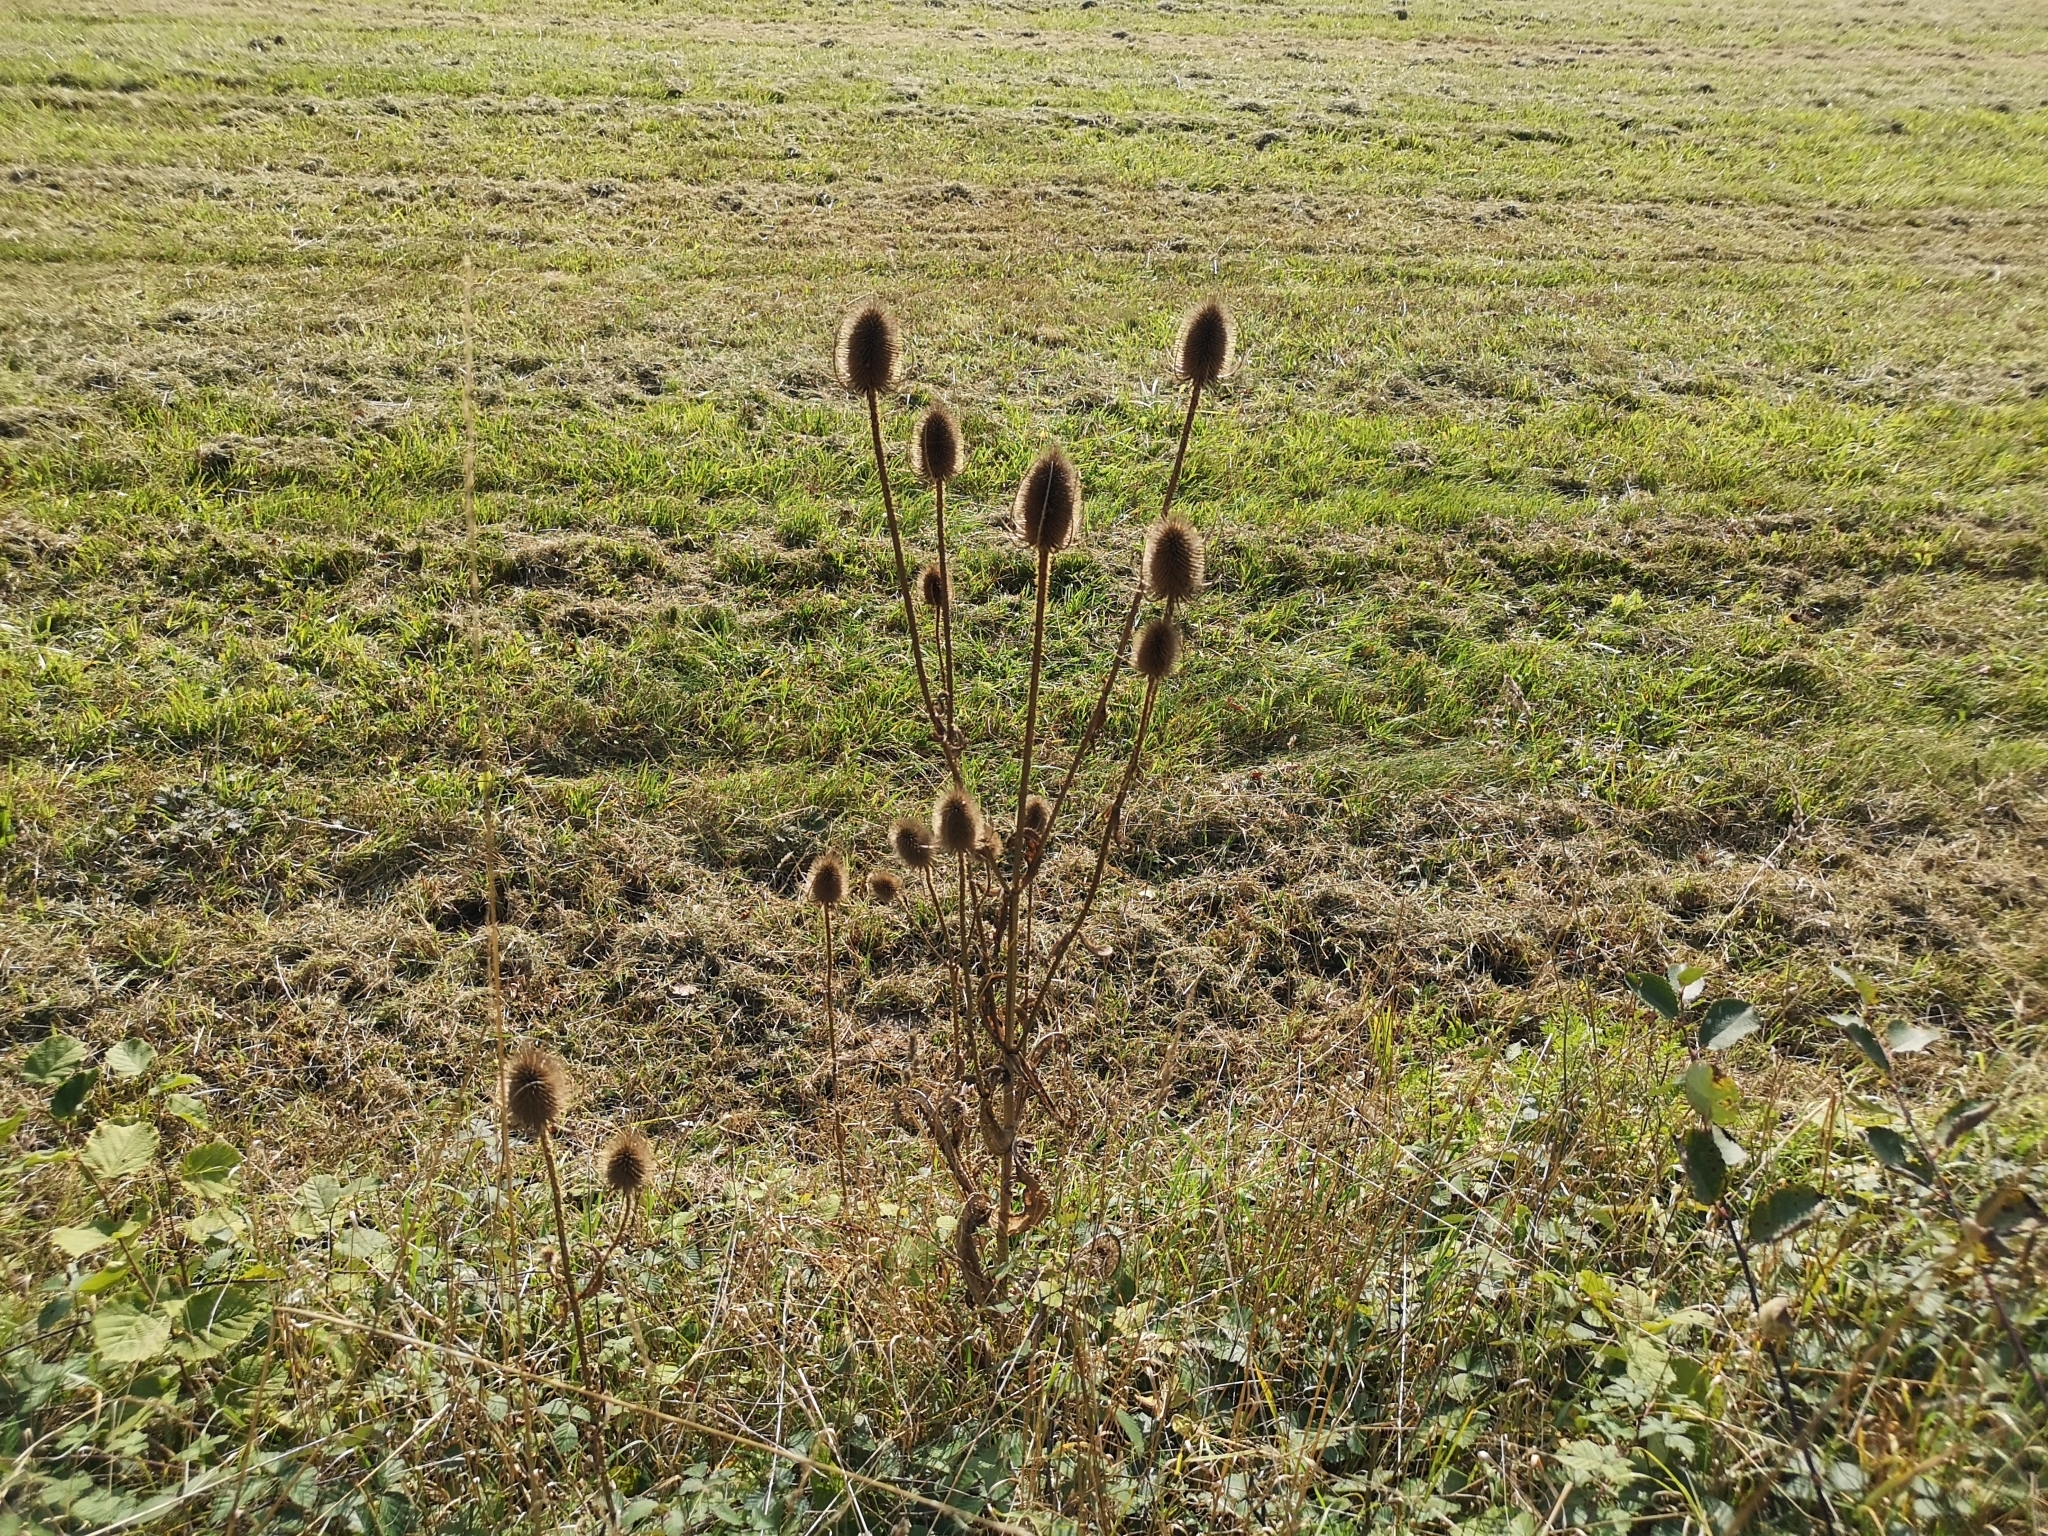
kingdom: Plantae
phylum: Tracheophyta
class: Magnoliopsida
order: Dipsacales
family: Caprifoliaceae
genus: Dipsacus
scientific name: Dipsacus fullonum
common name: Teasel
